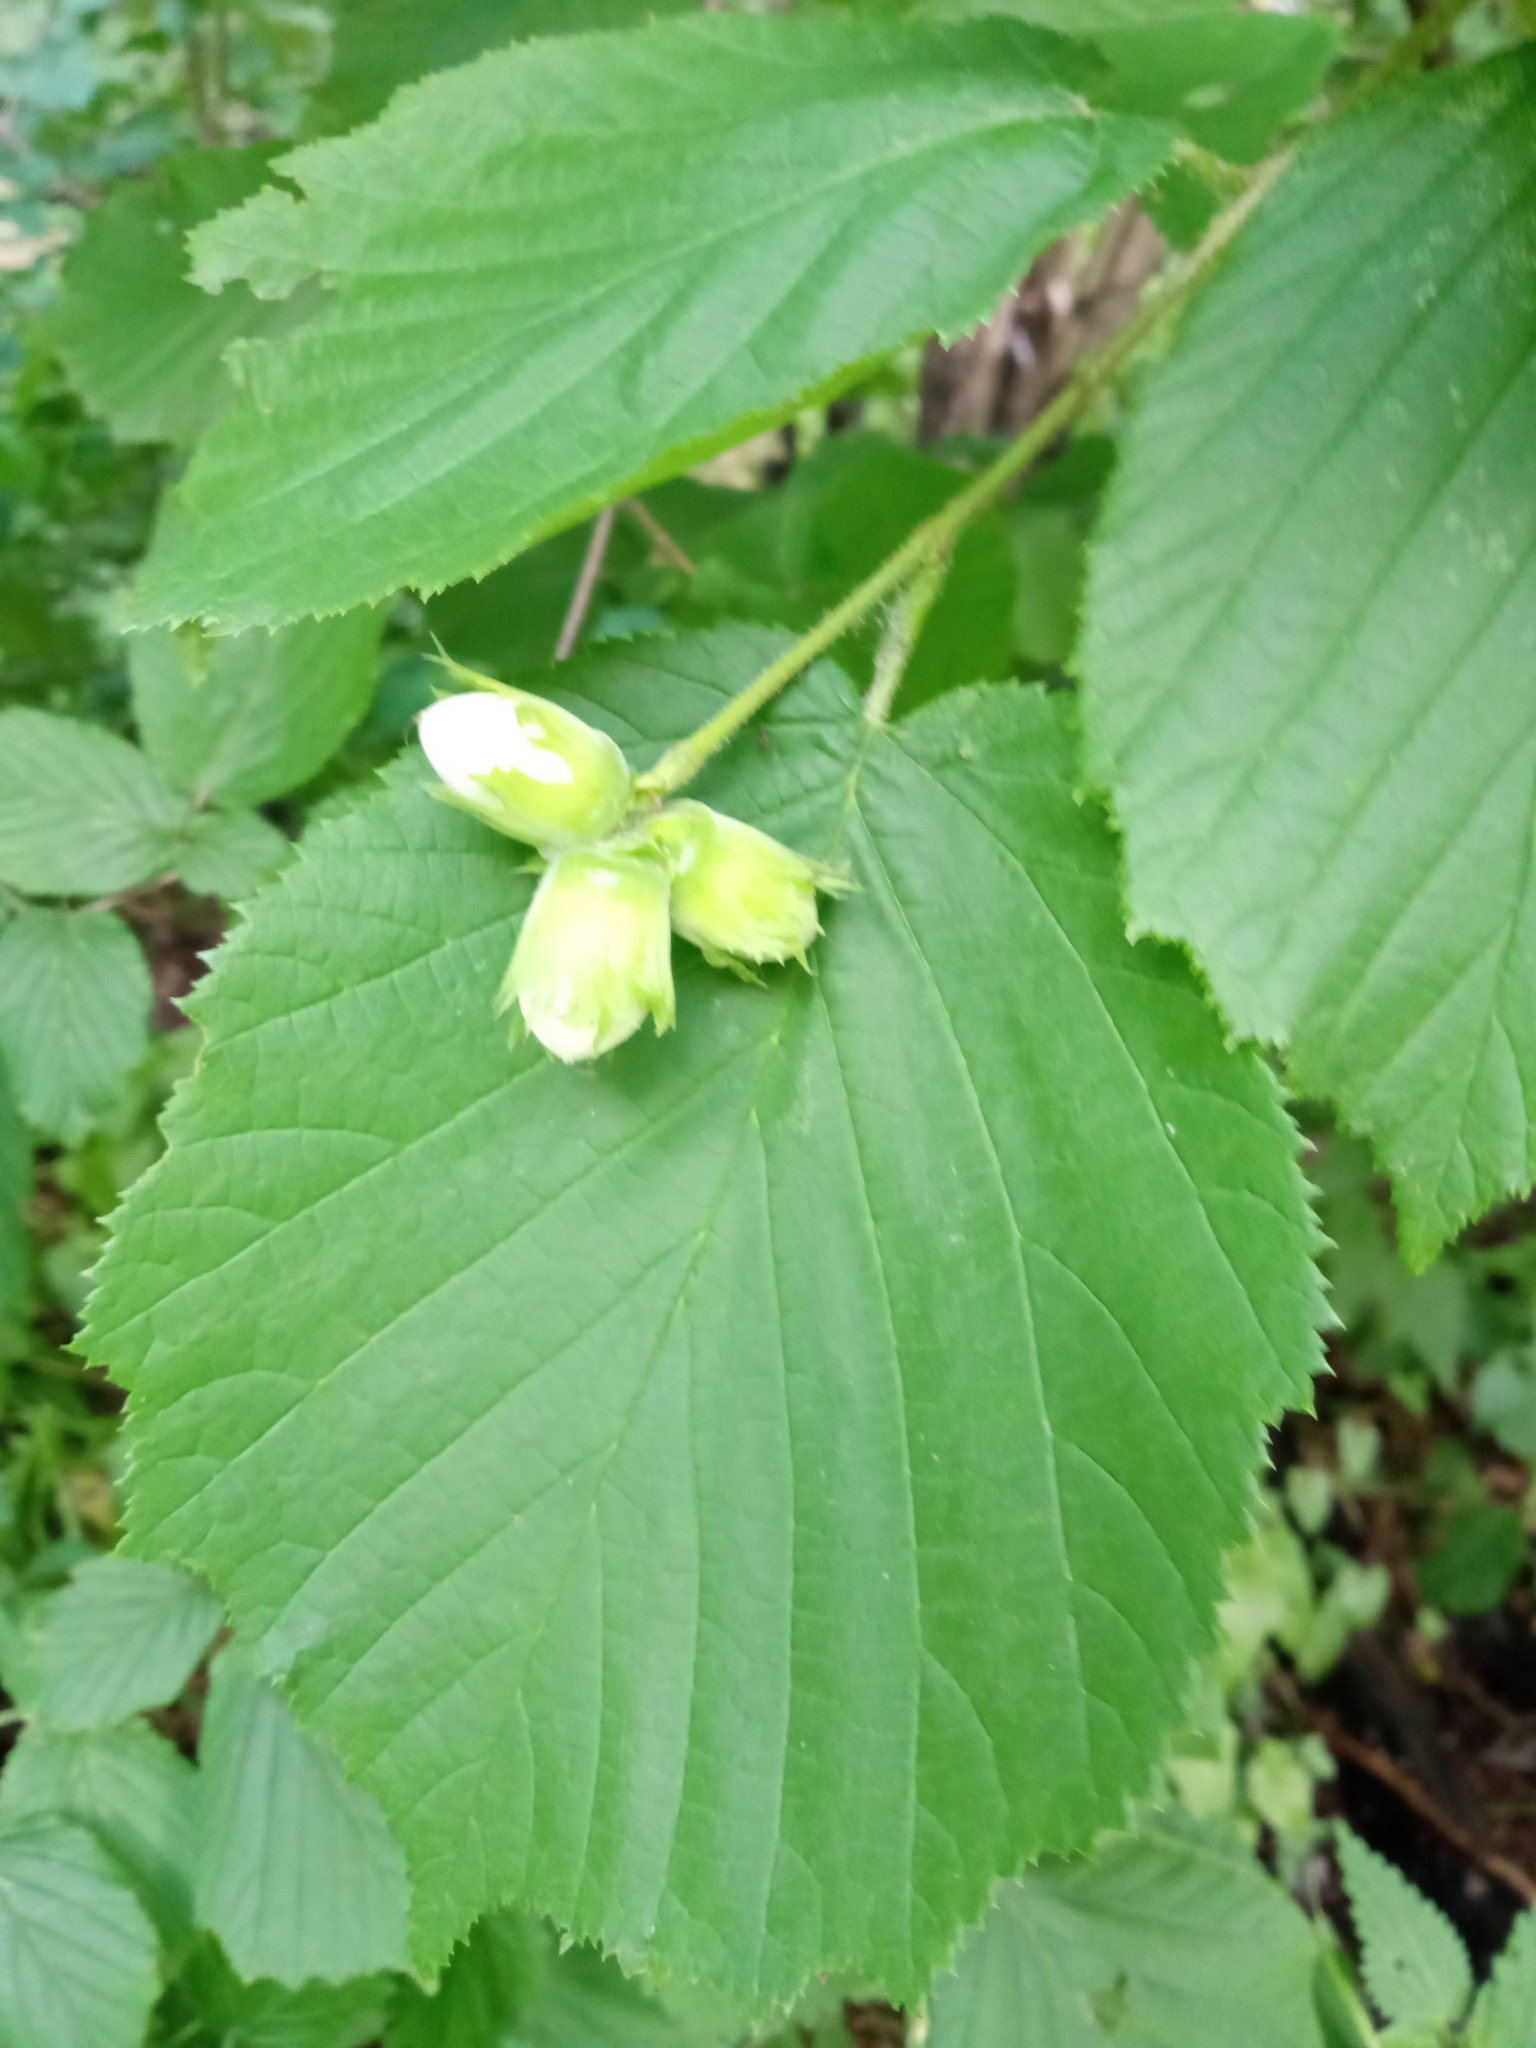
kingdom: Plantae
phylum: Tracheophyta
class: Magnoliopsida
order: Fagales
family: Betulaceae
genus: Corylus
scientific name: Corylus avellana
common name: European hazel
